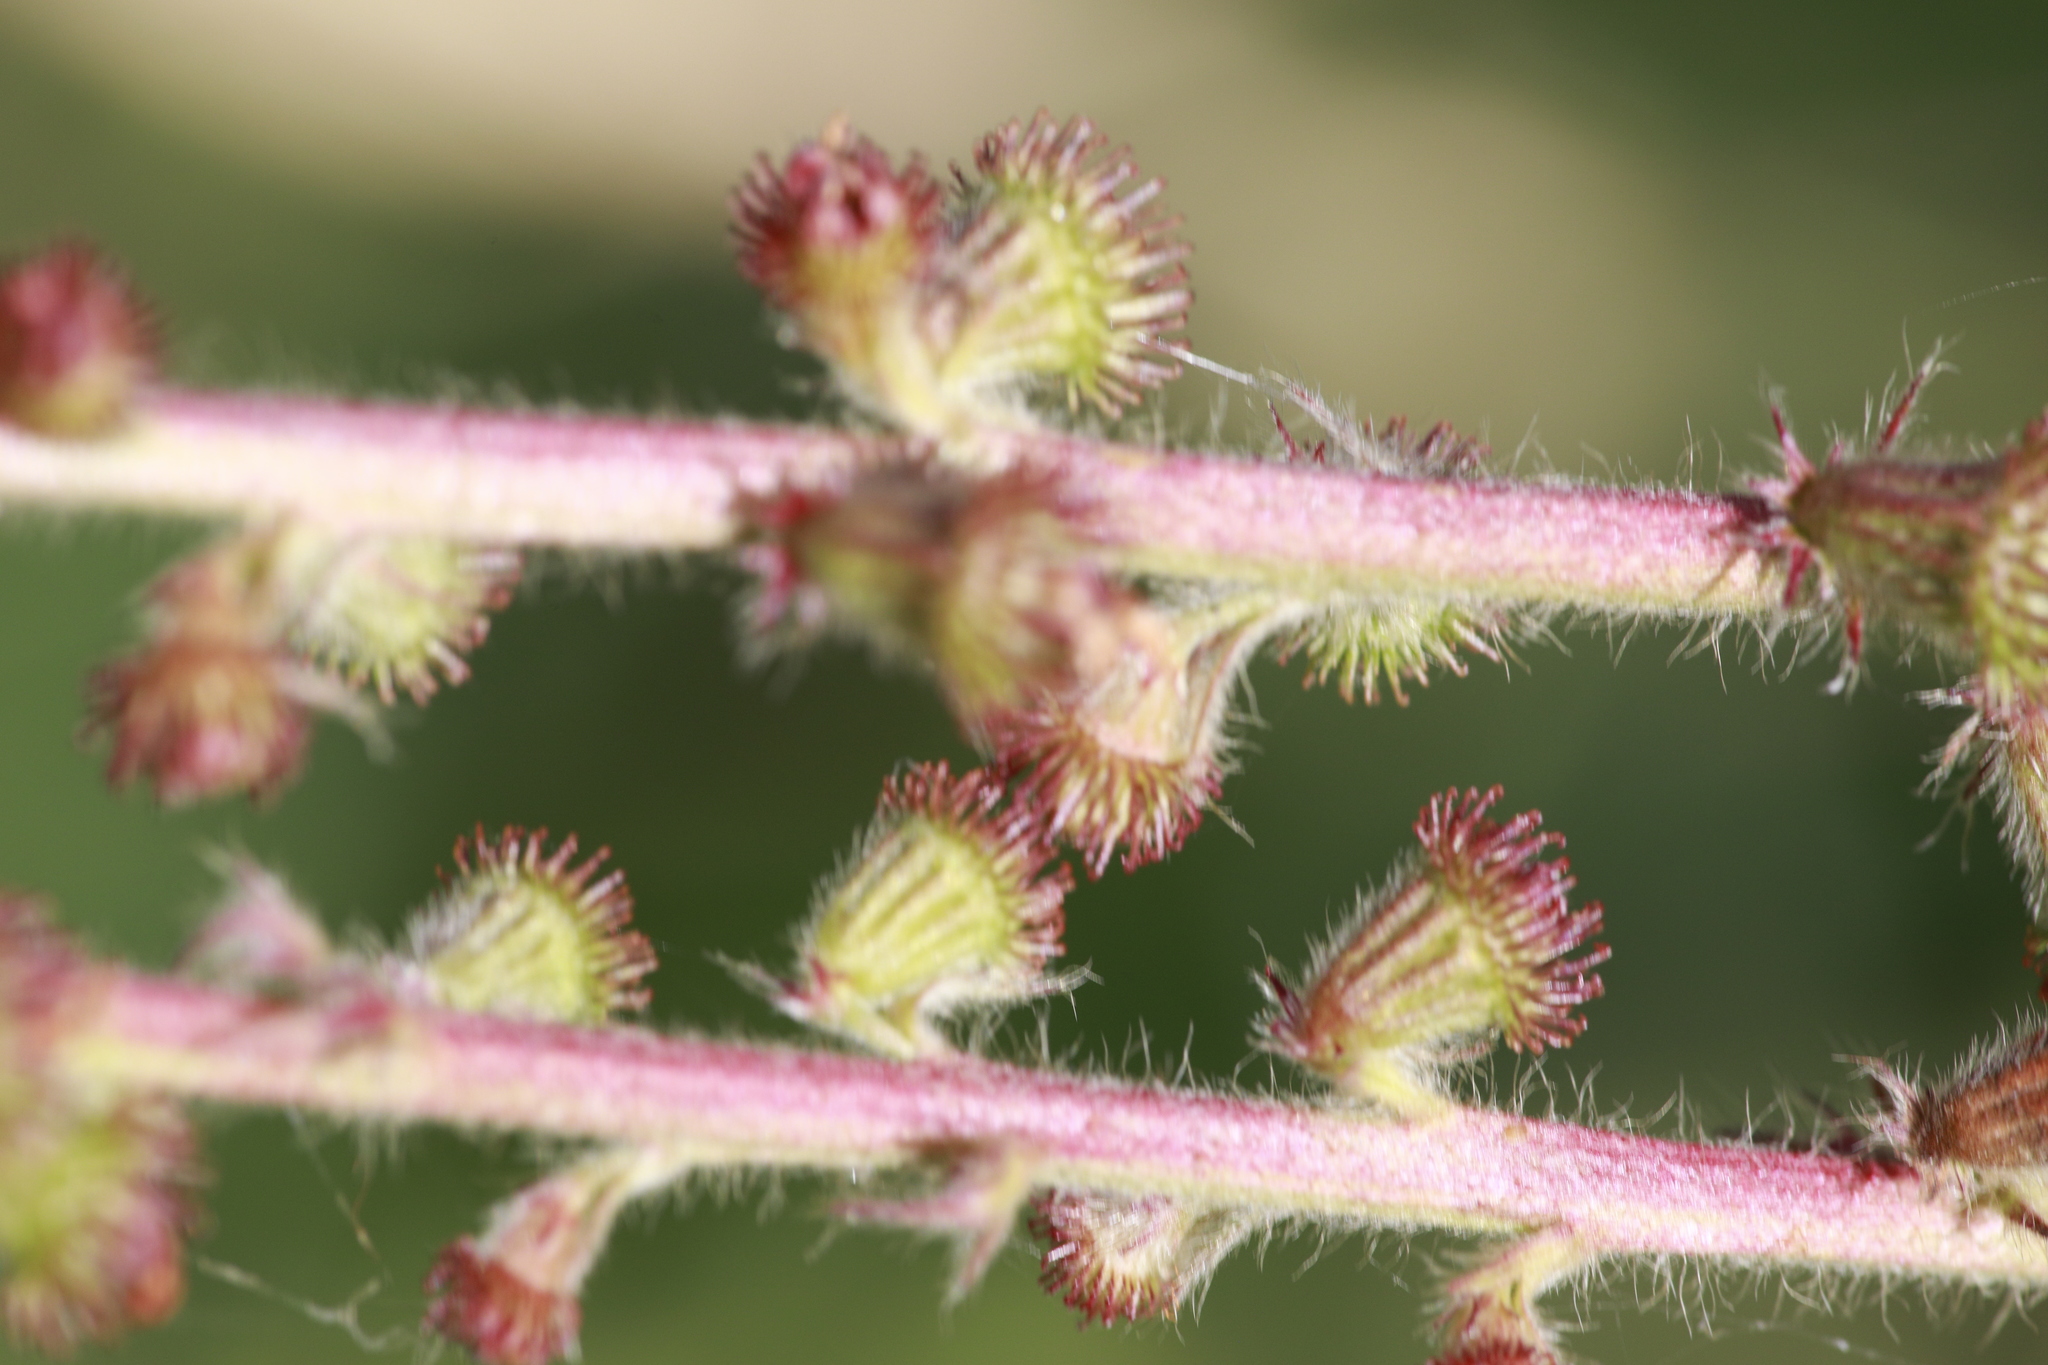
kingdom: Plantae
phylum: Tracheophyta
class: Magnoliopsida
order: Rosales
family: Rosaceae
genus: Agrimonia
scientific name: Agrimonia eupatoria
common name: Agrimony
